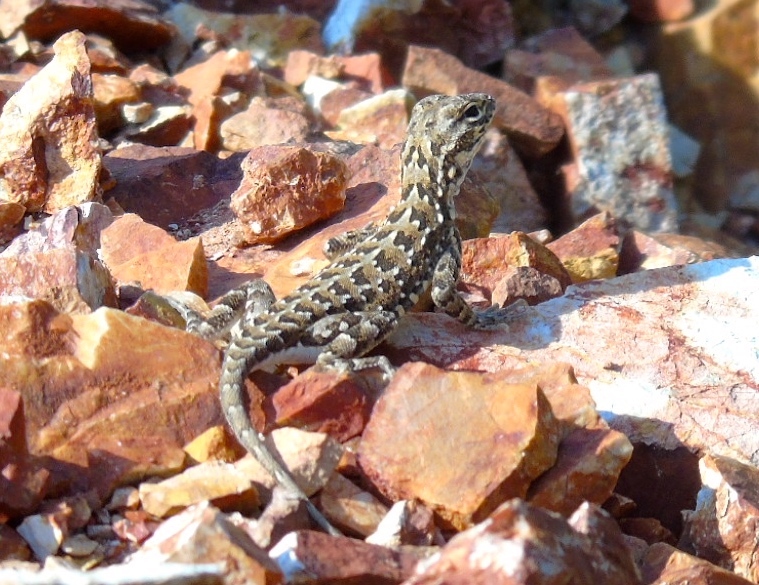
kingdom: Animalia
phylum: Chordata
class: Squamata
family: Phrynosomatidae
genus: Holbrookia
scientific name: Holbrookia elegans
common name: Elegant earless lizard
